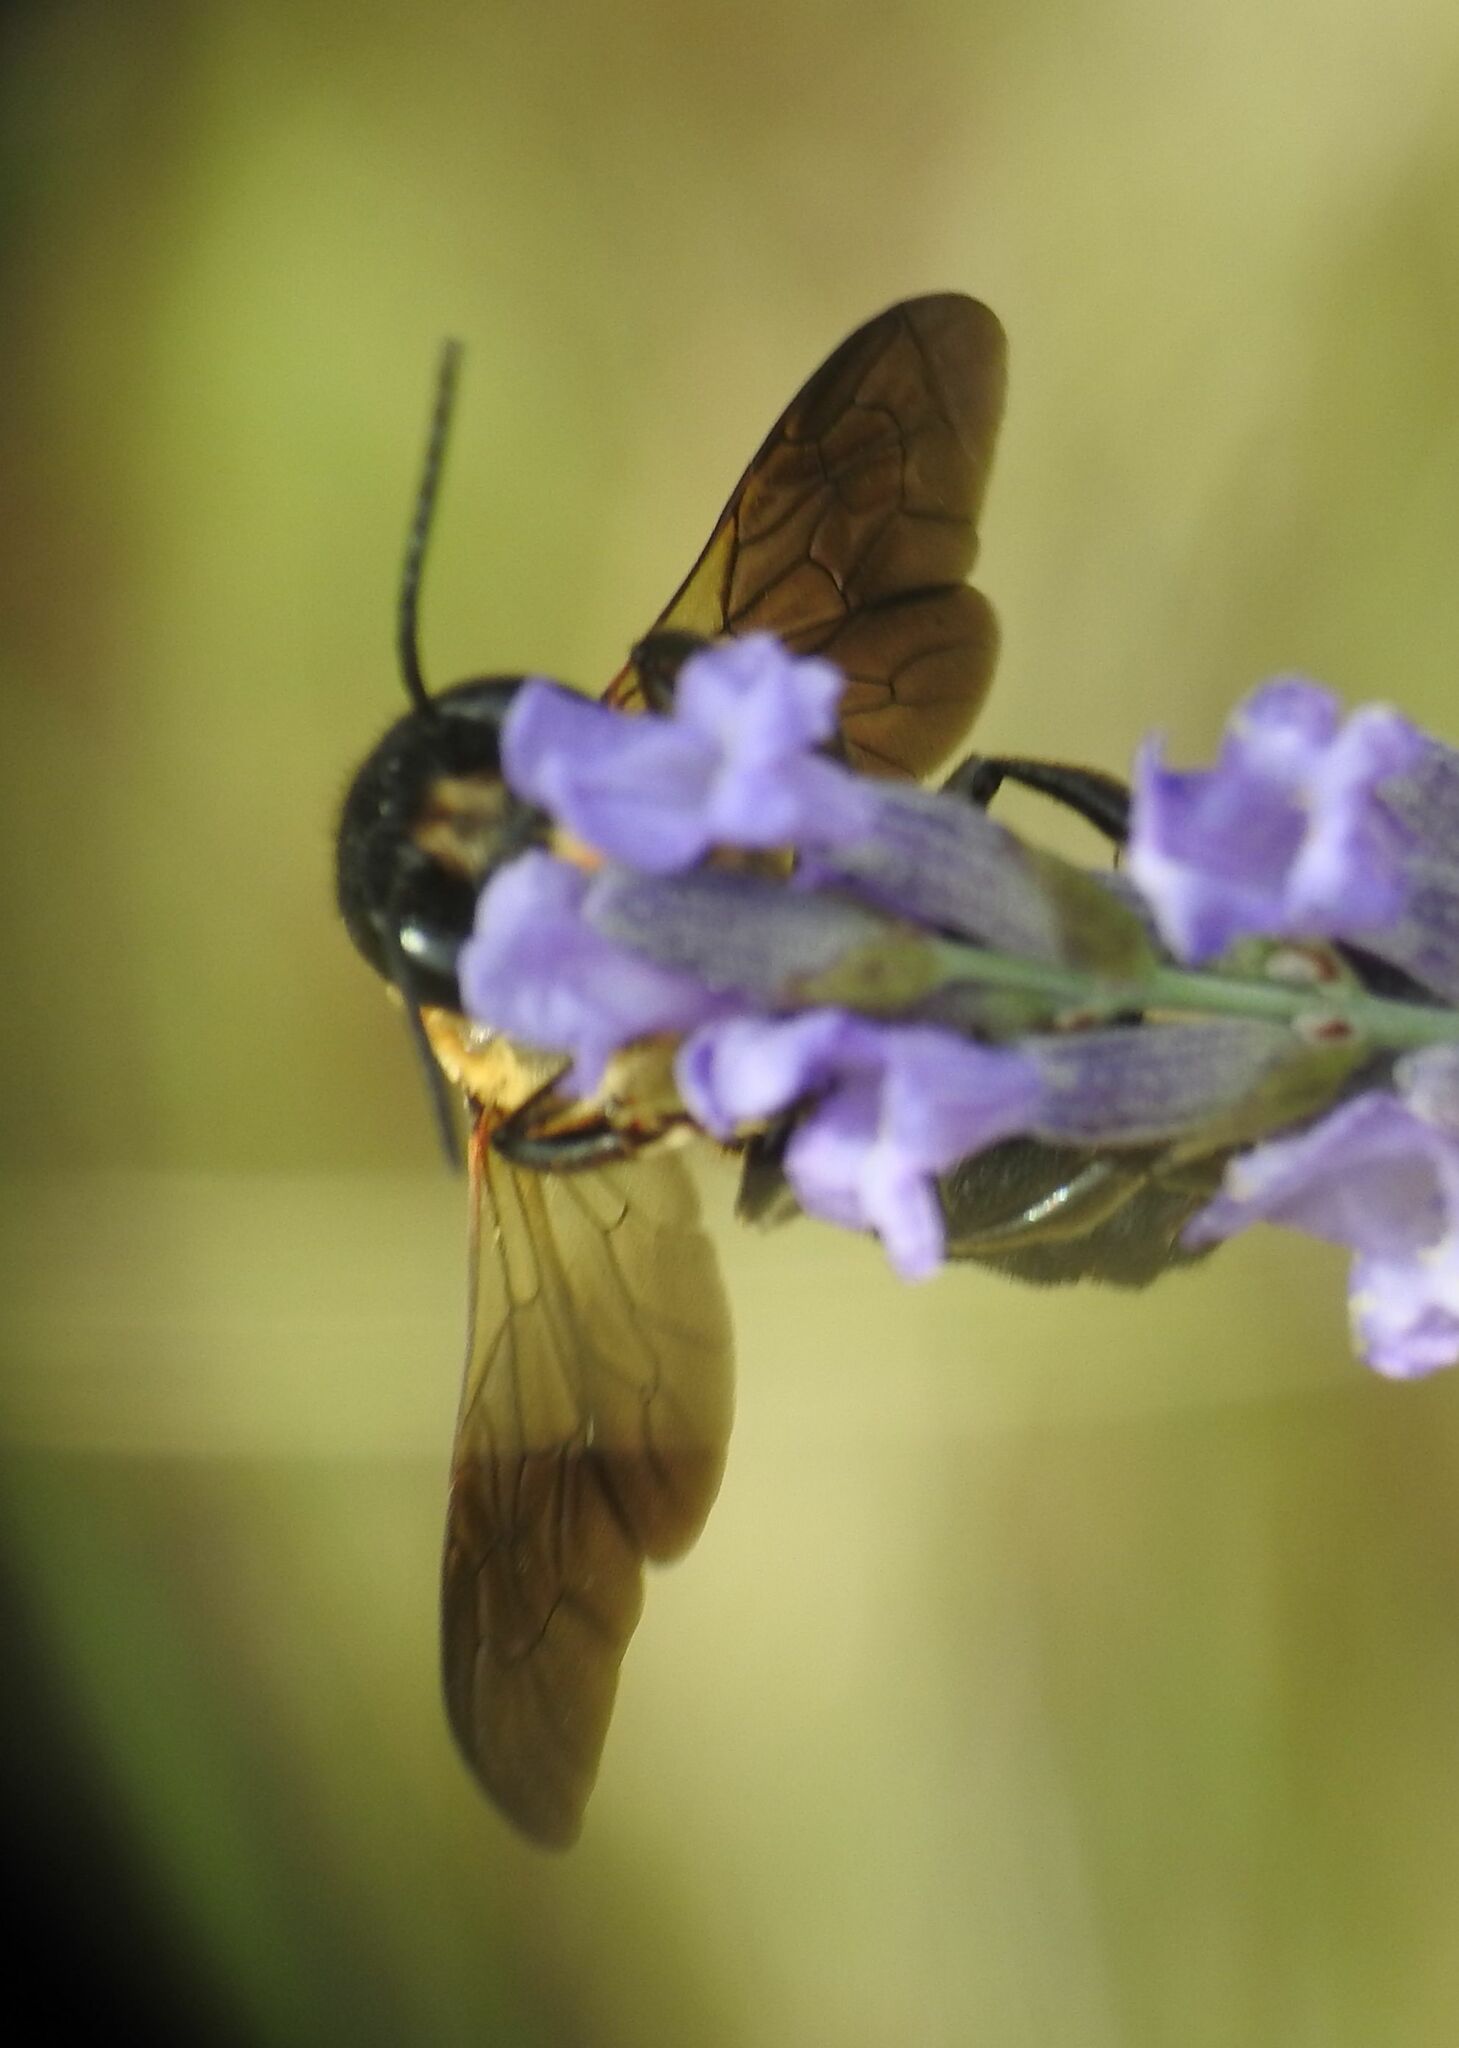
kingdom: Animalia
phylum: Arthropoda
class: Insecta
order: Hymenoptera
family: Megachilidae
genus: Megachile
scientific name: Megachile sculpturalis
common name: Sculptured resin bee
